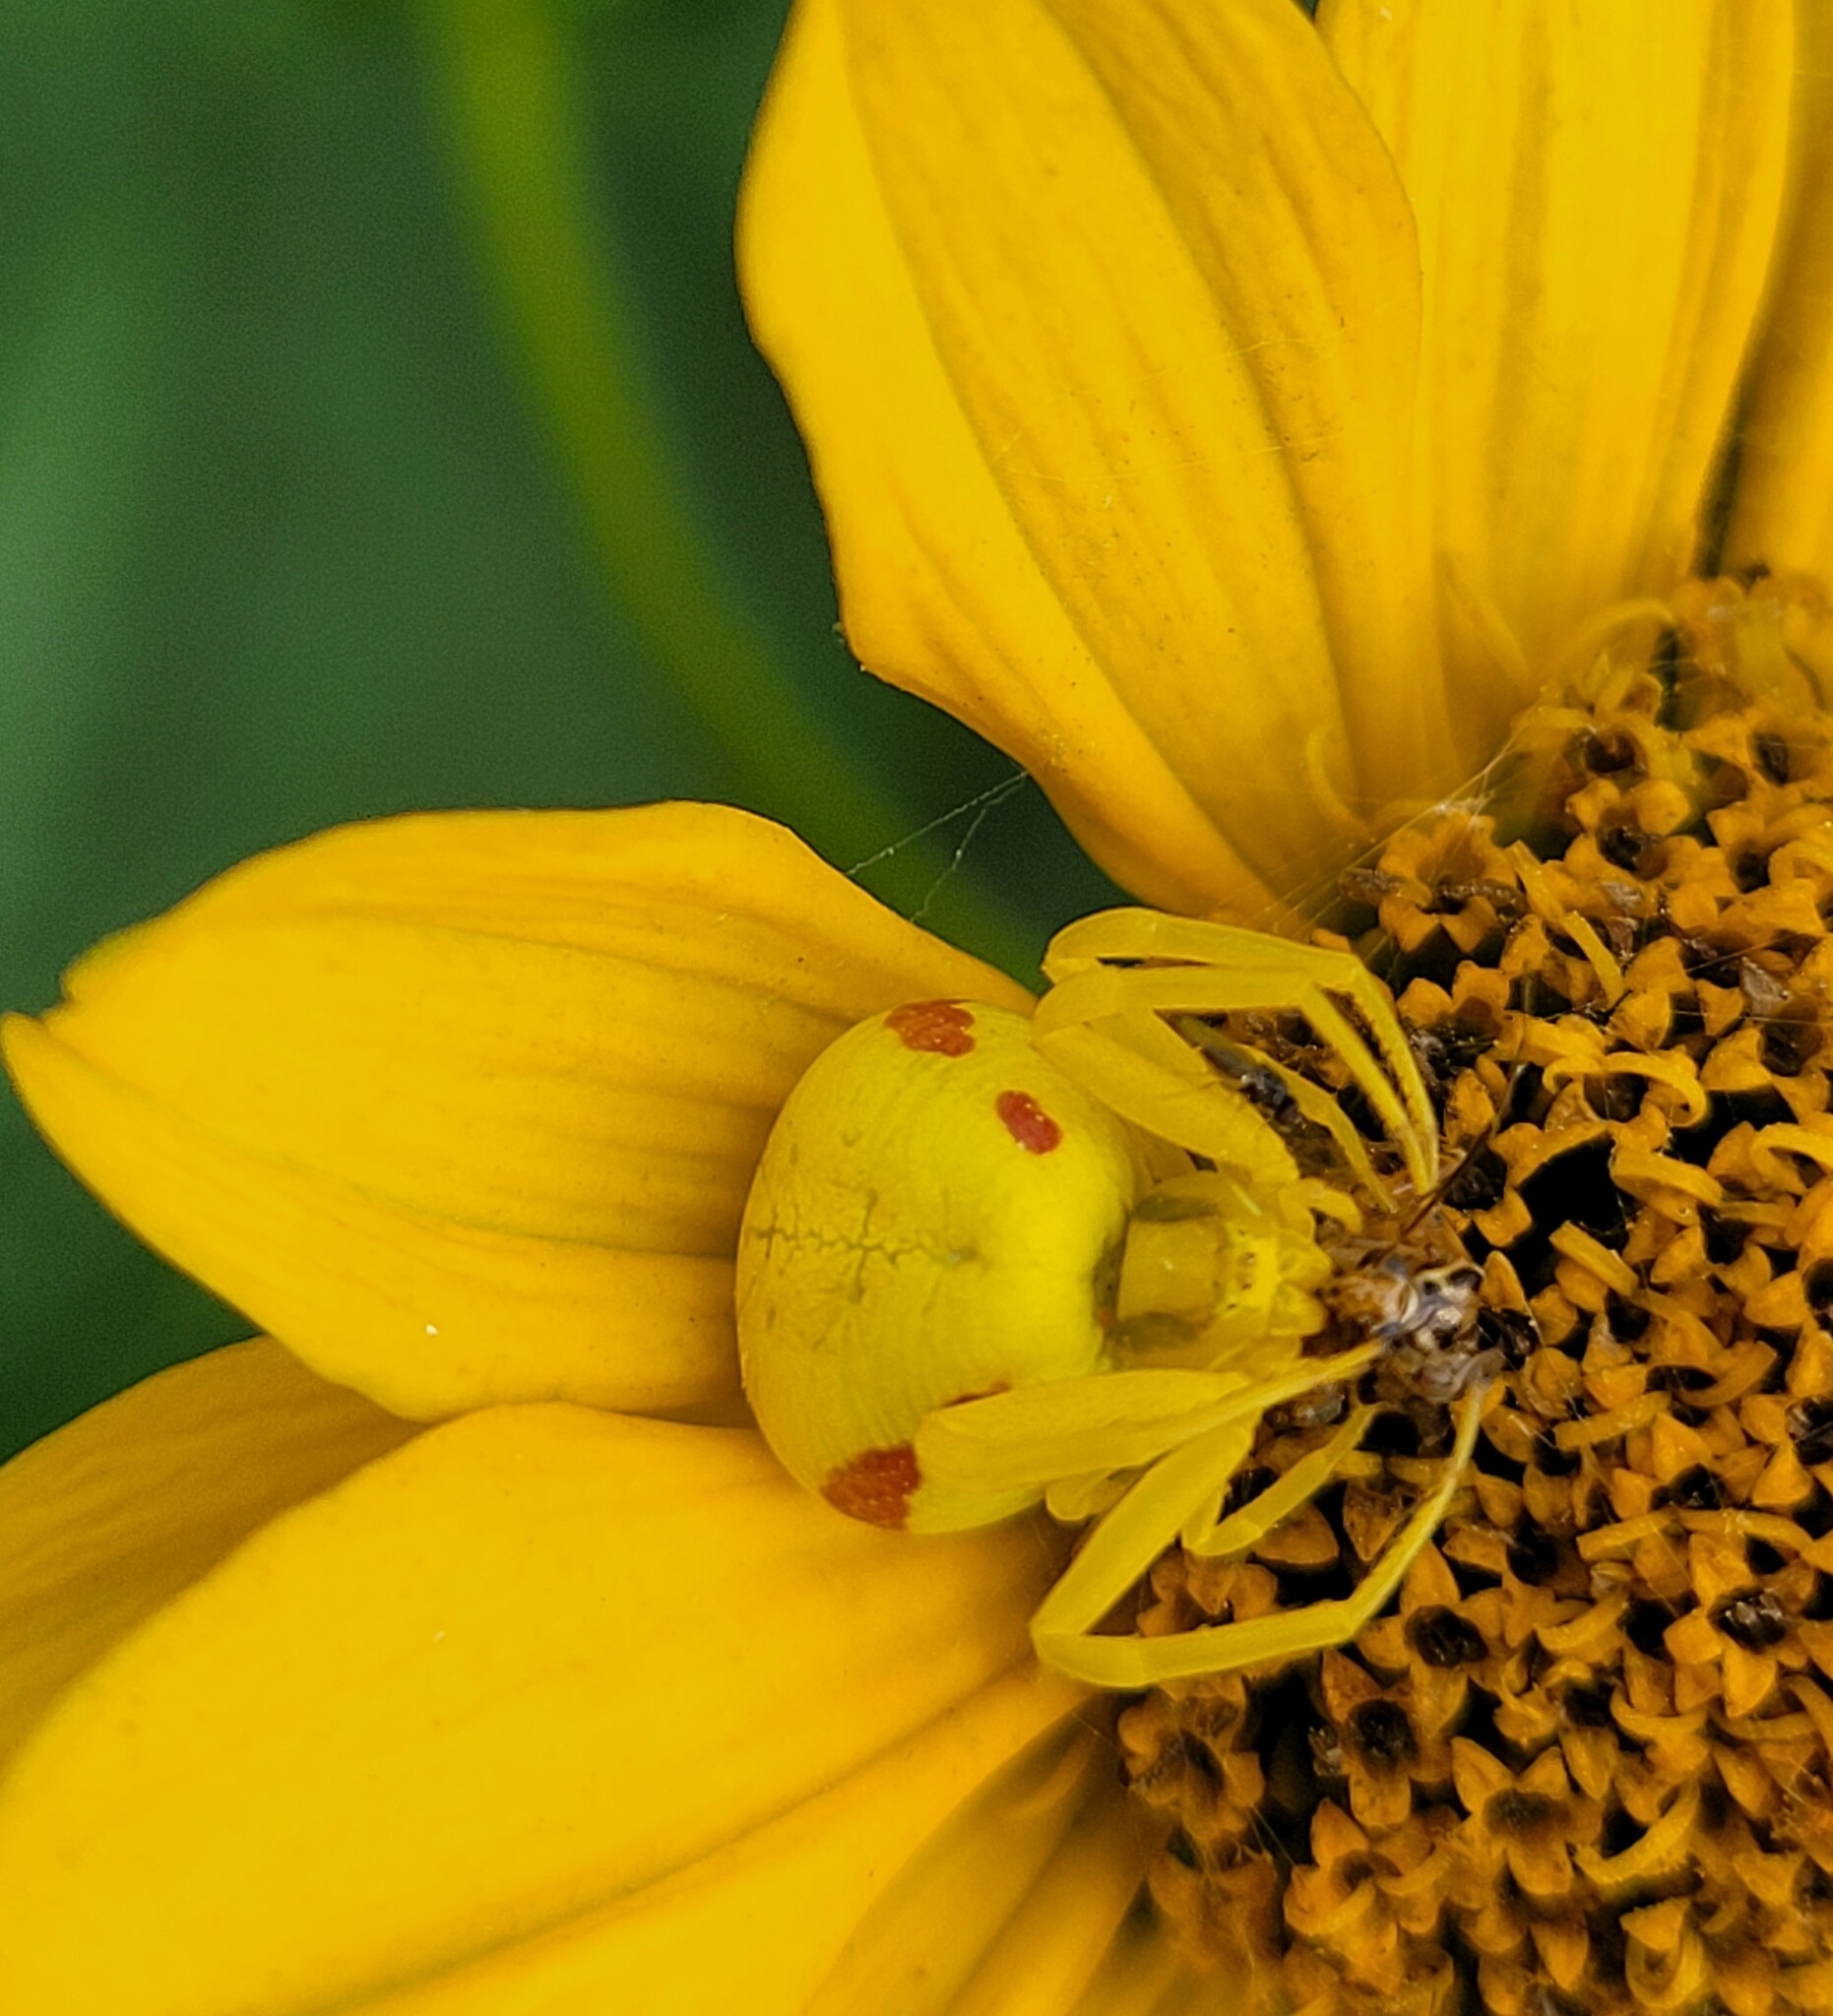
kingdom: Animalia
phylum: Arthropoda
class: Arachnida
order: Araneae
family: Thomisidae
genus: Misumena
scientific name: Misumena vatia
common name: Goldenrod crab spider
